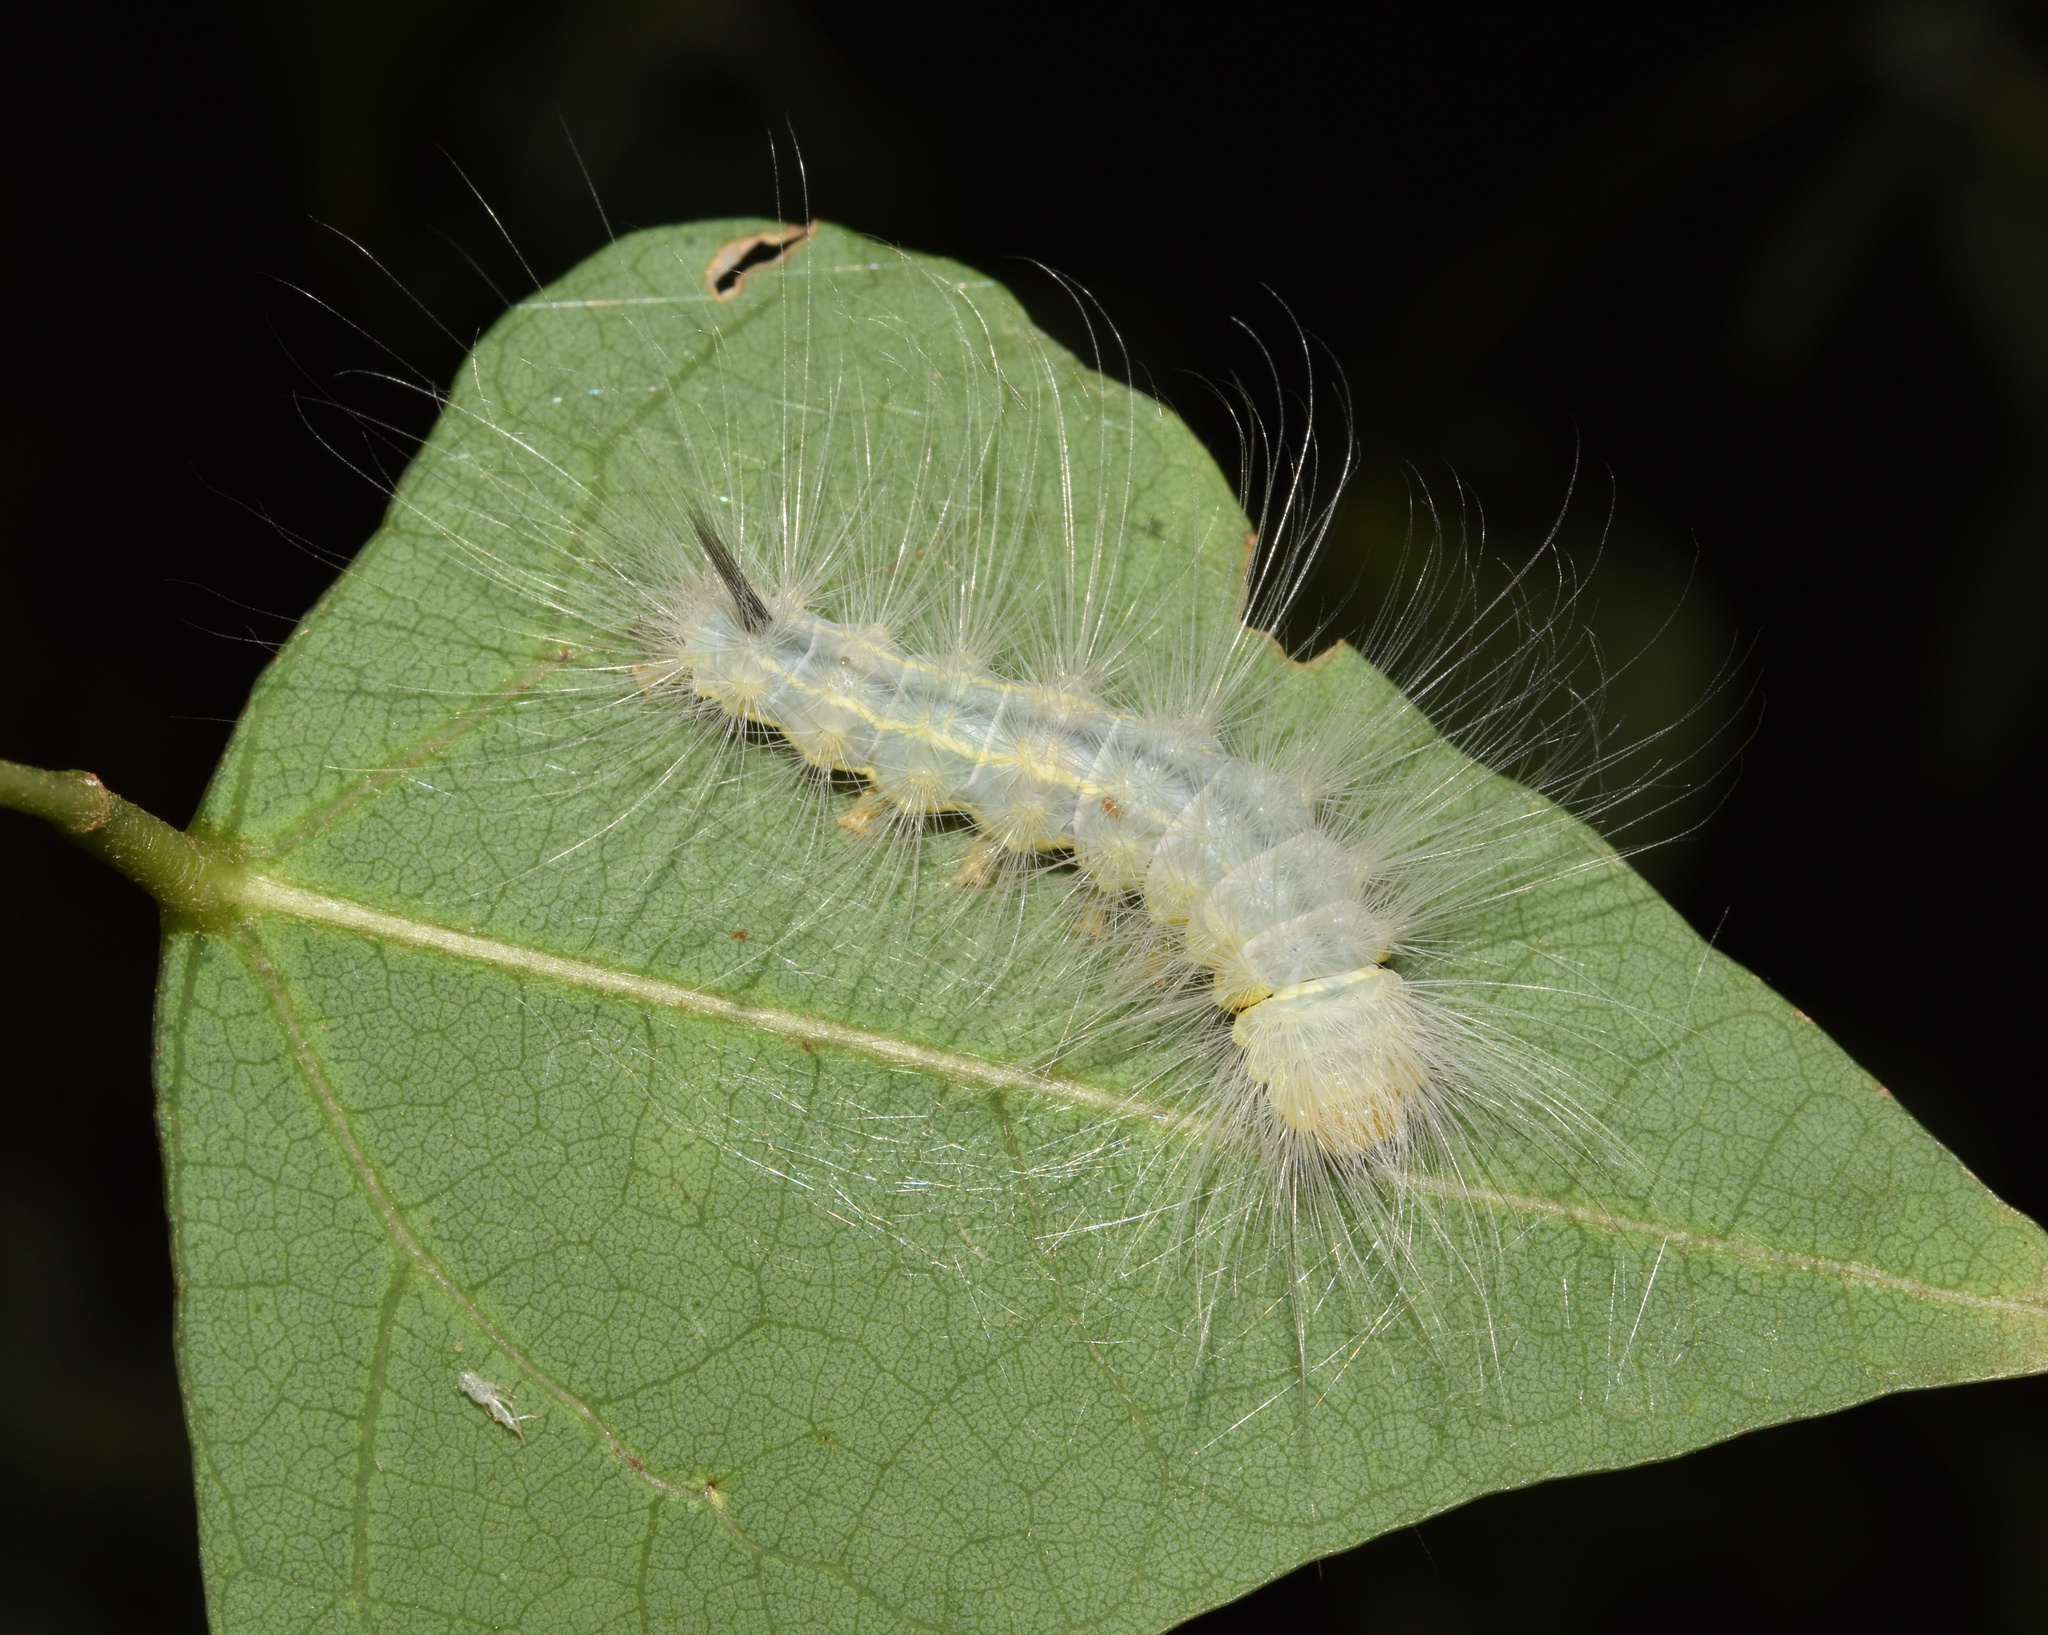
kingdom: Animalia
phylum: Arthropoda
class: Insecta
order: Lepidoptera
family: Erebidae
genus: Dasychira
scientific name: Dasychira georgiana
